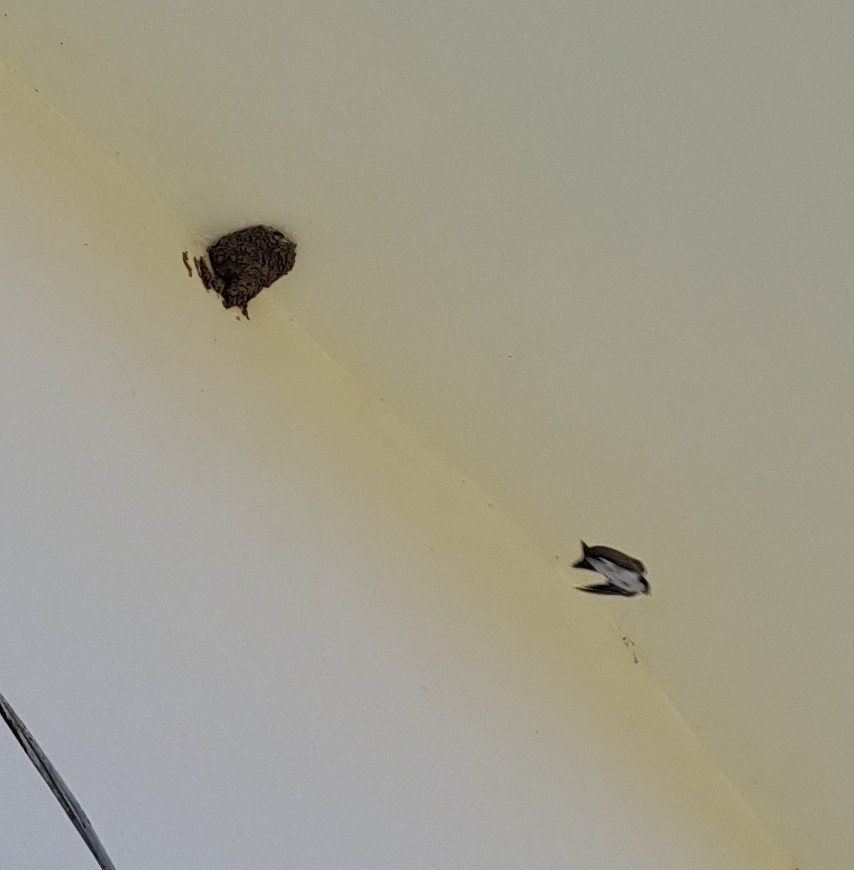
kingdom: Animalia
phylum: Chordata
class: Aves
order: Passeriformes
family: Hirundinidae
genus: Delichon
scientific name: Delichon urbicum
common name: Common house martin
